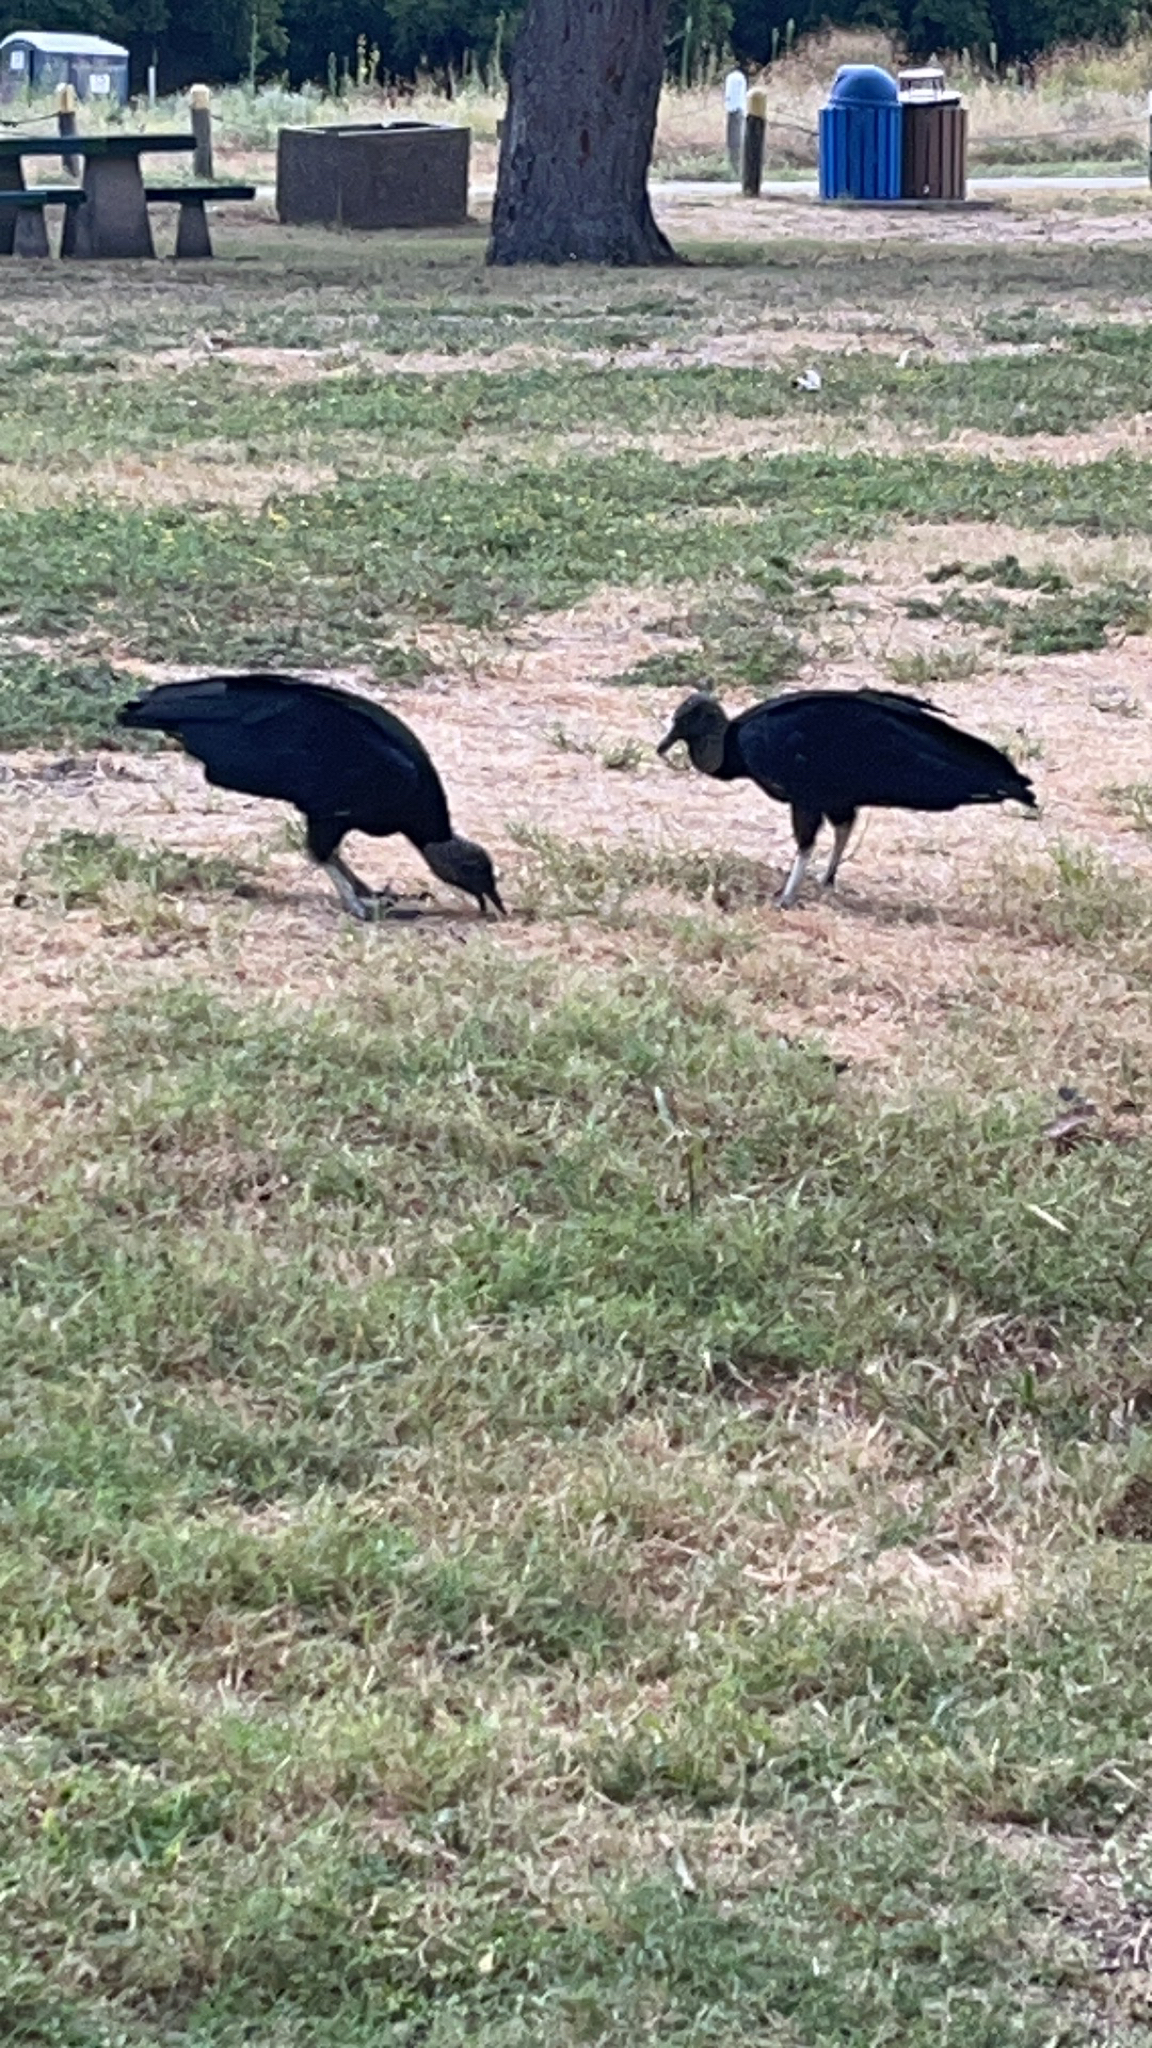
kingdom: Animalia
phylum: Chordata
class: Aves
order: Accipitriformes
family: Cathartidae
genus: Coragyps
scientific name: Coragyps atratus
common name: Black vulture
